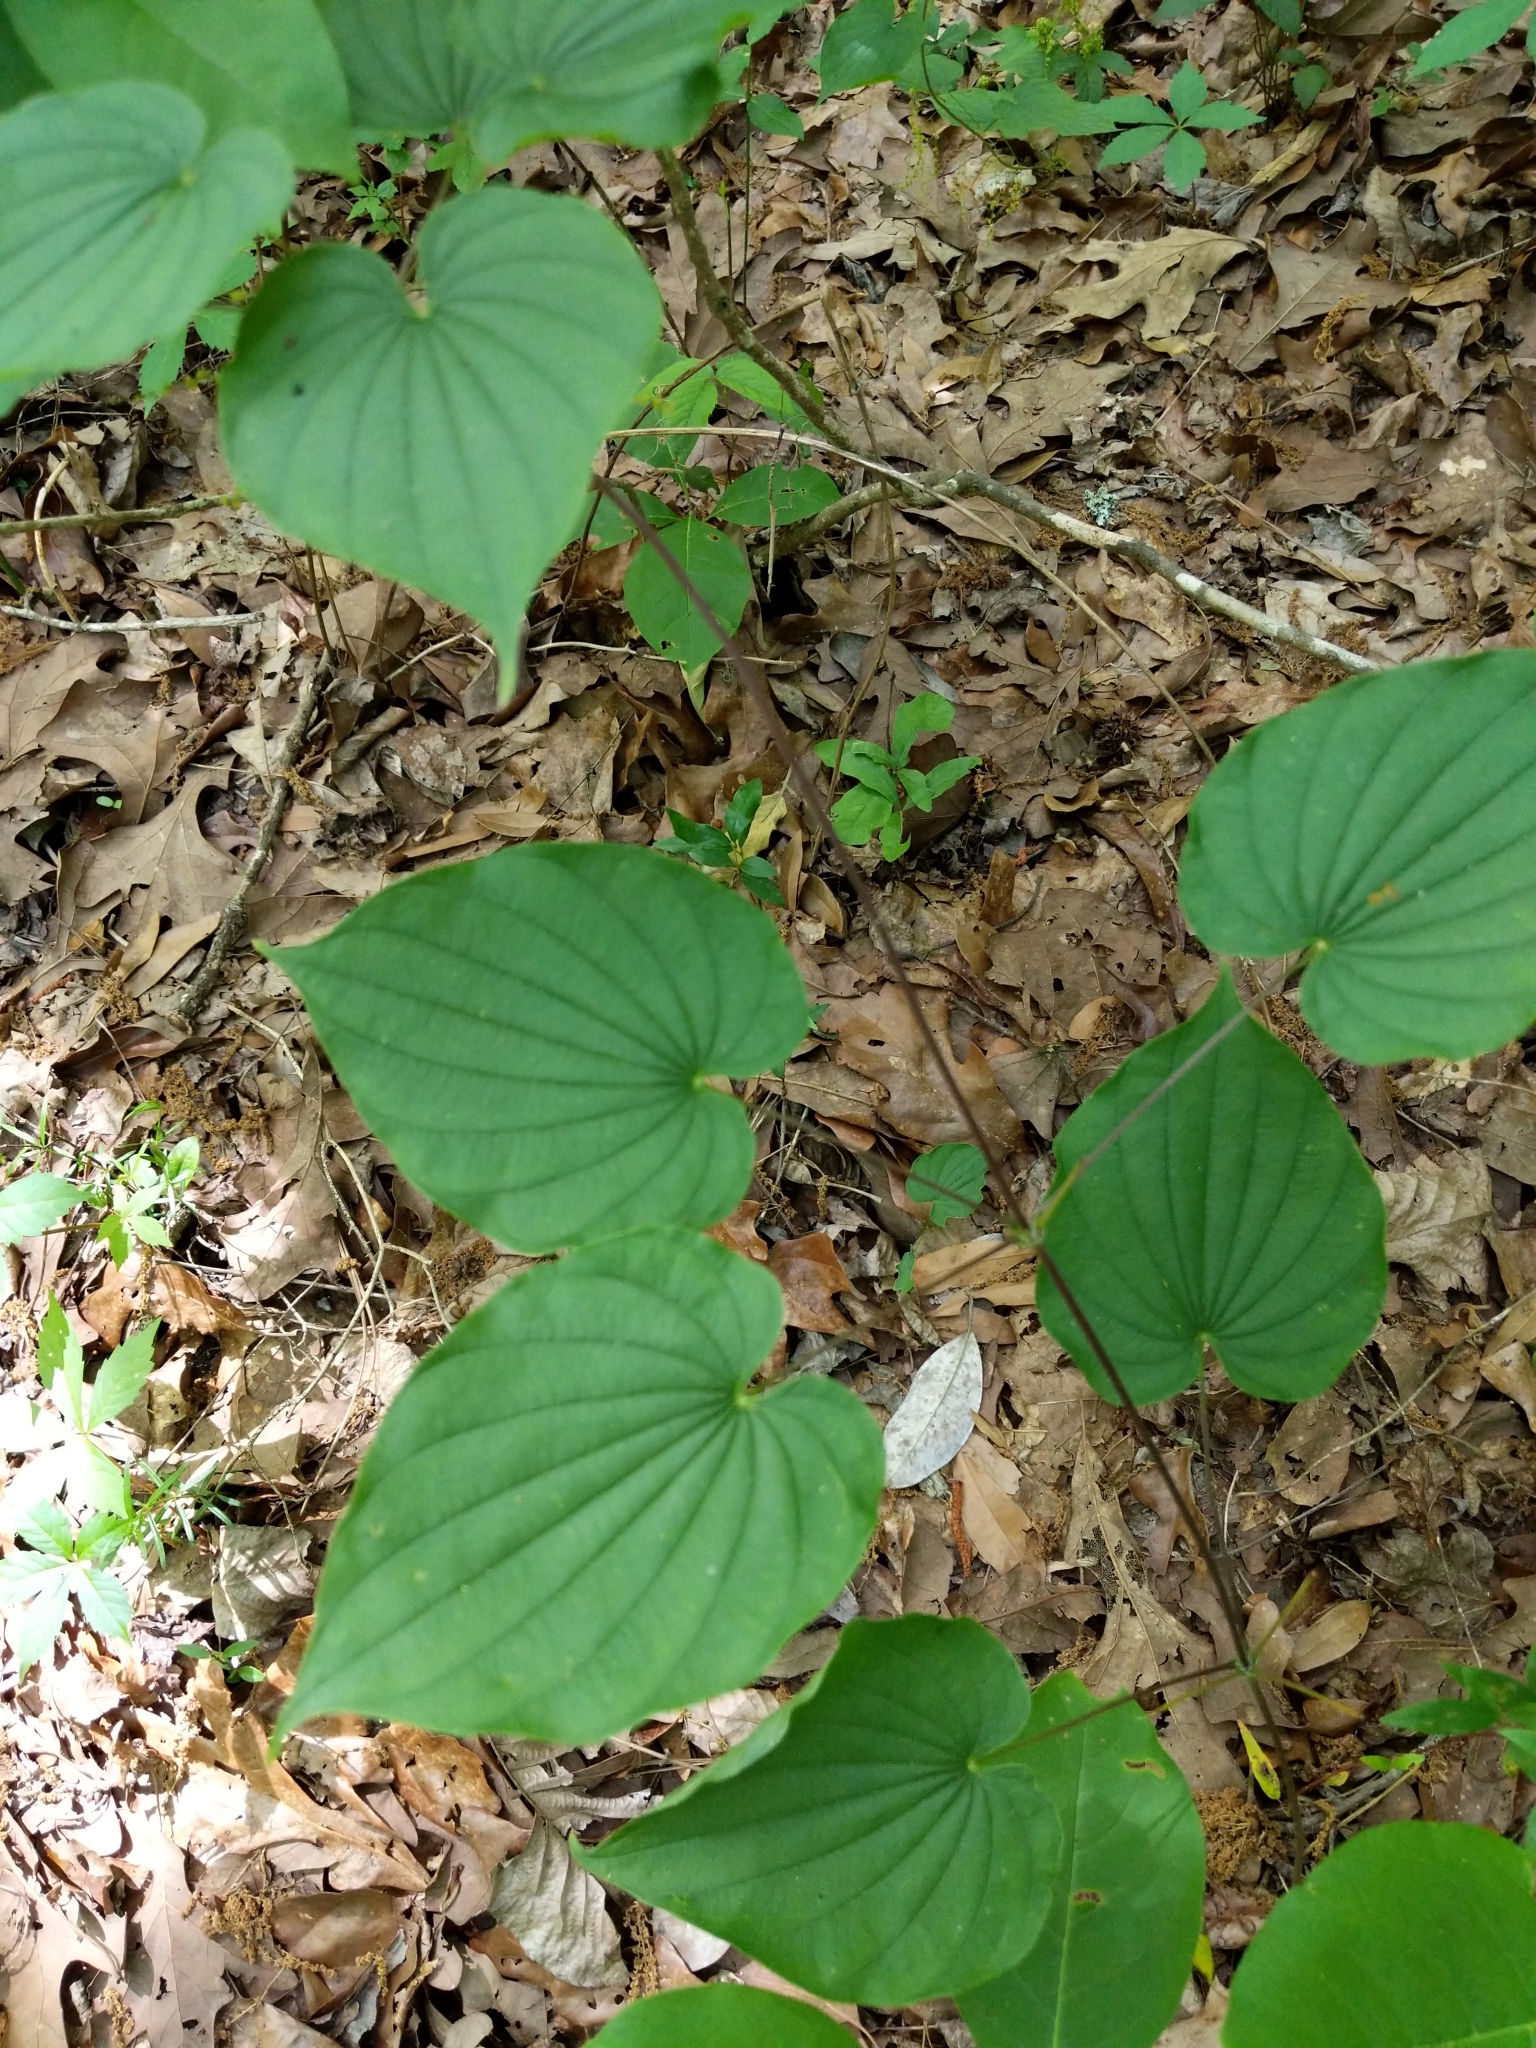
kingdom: Plantae
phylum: Tracheophyta
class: Liliopsida
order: Dioscoreales
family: Dioscoreaceae
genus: Dioscorea
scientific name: Dioscorea villosa
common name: Wild yam
